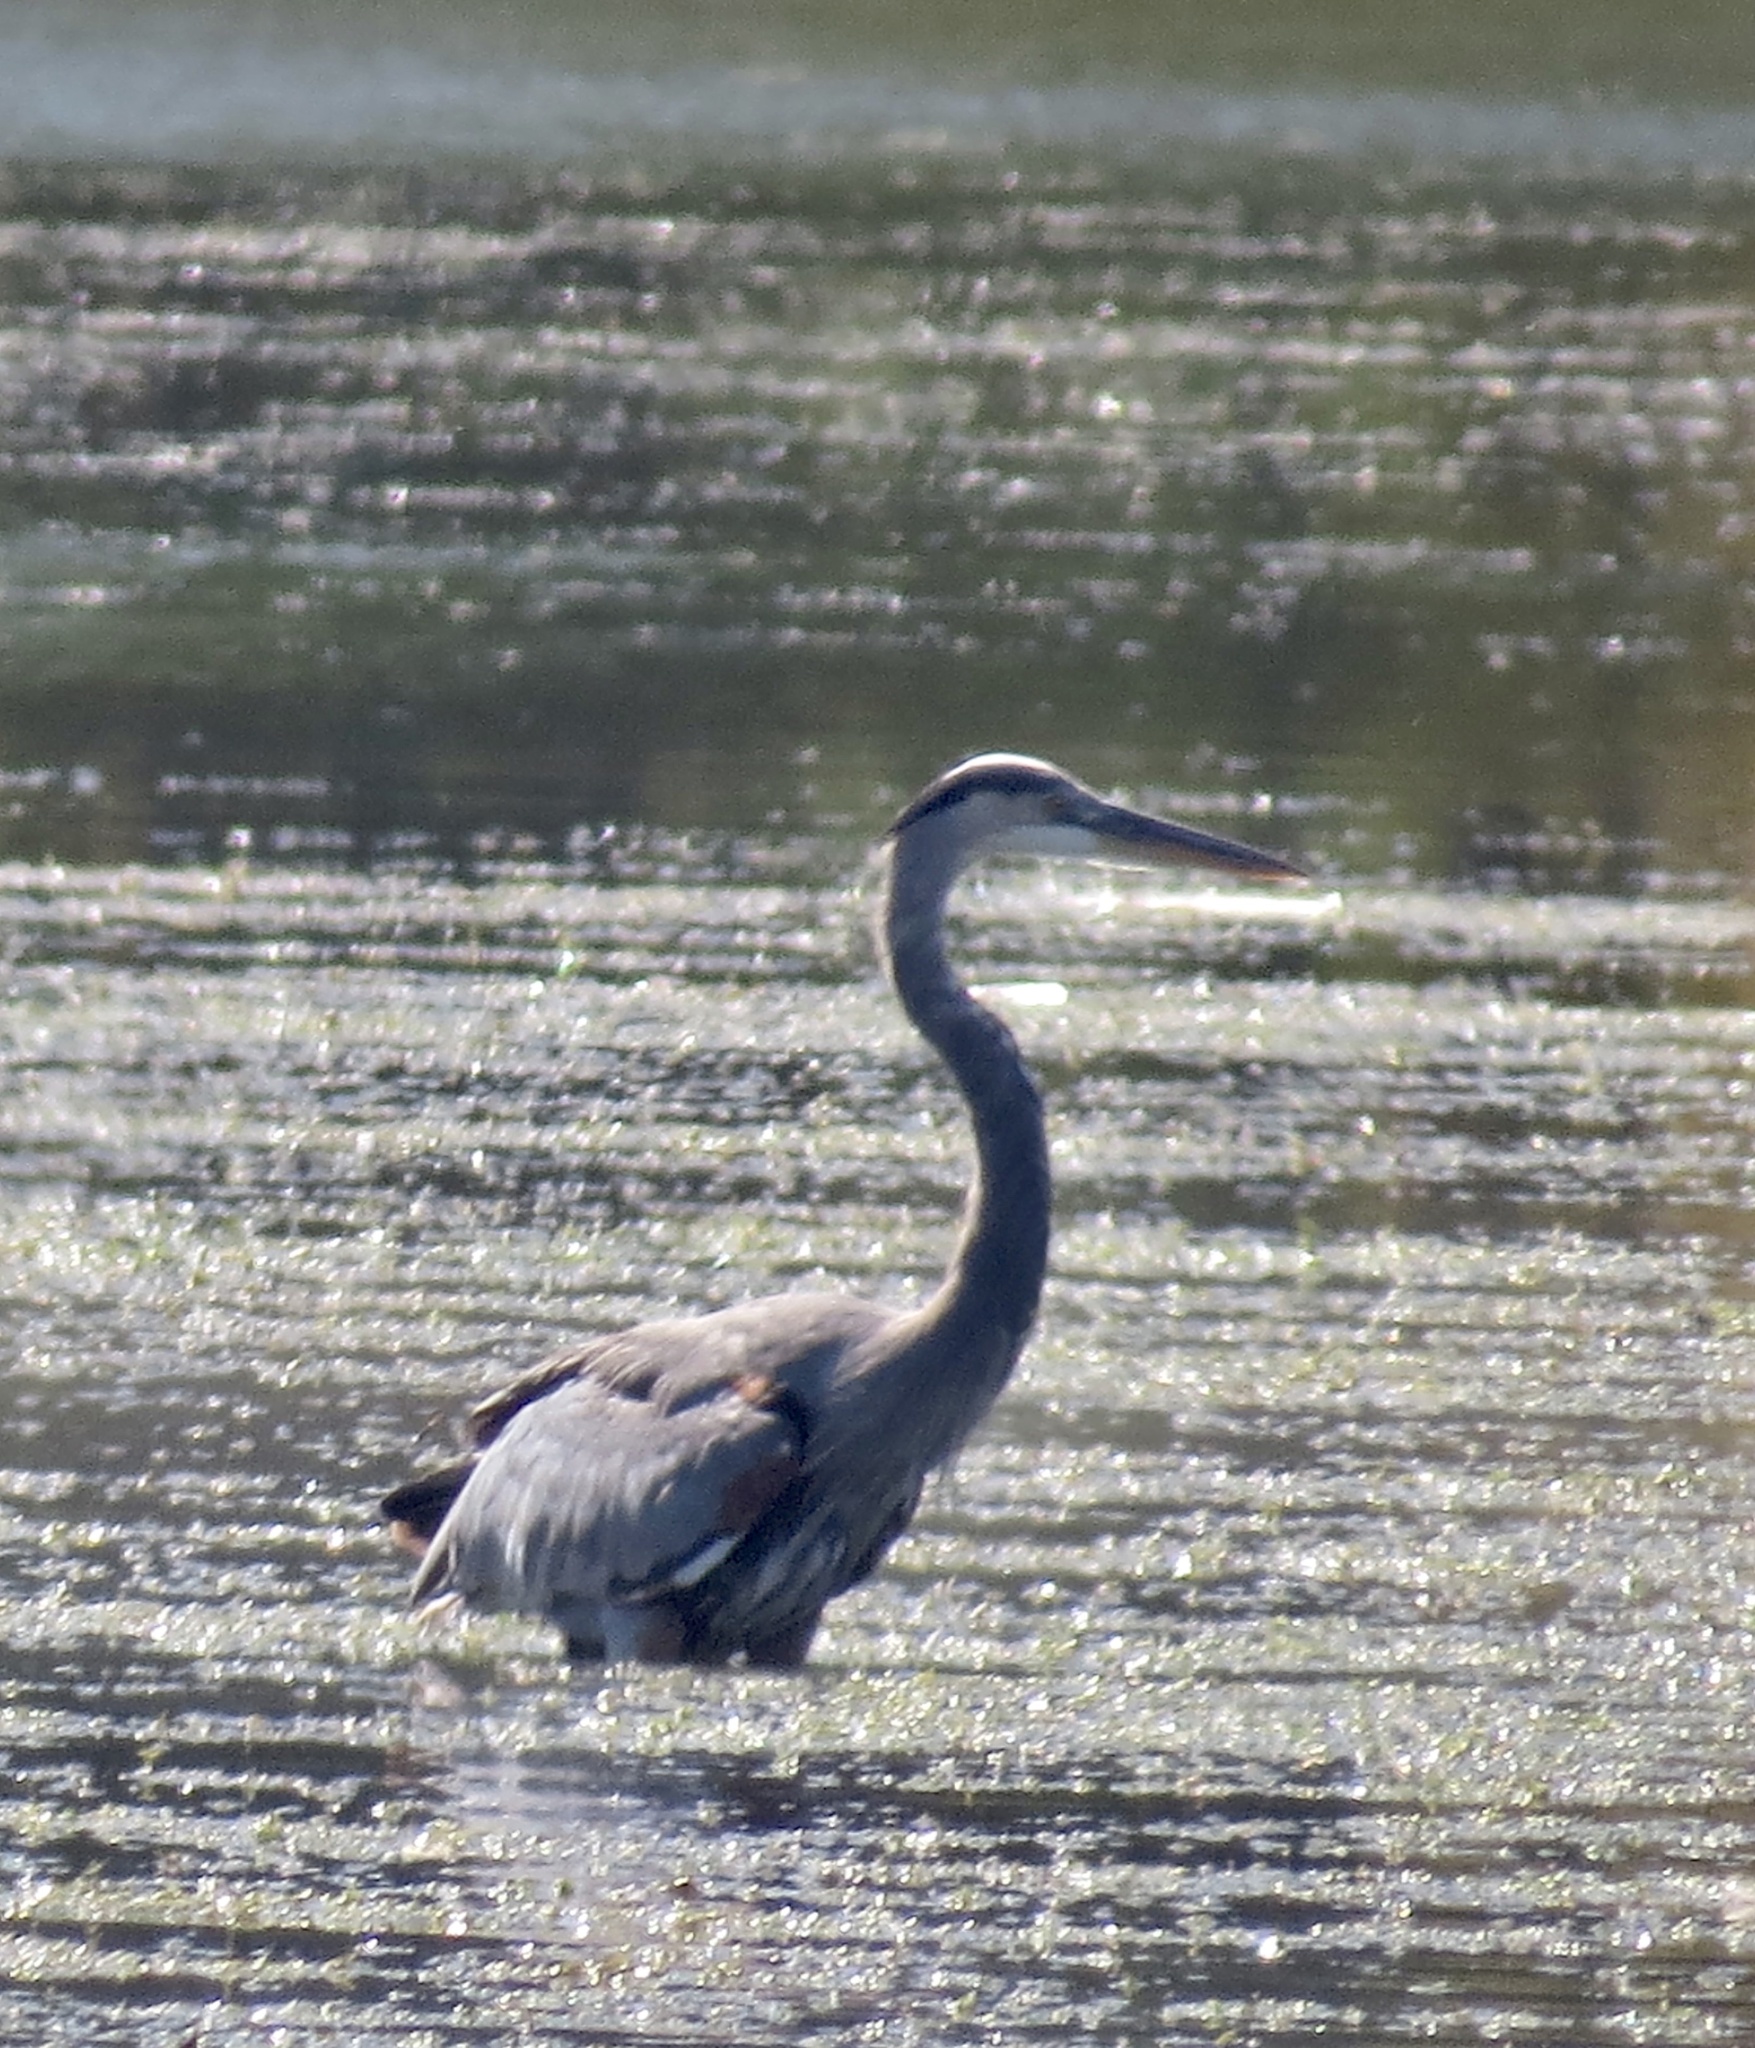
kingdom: Animalia
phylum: Chordata
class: Aves
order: Pelecaniformes
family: Ardeidae
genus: Ardea
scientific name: Ardea herodias
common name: Great blue heron
